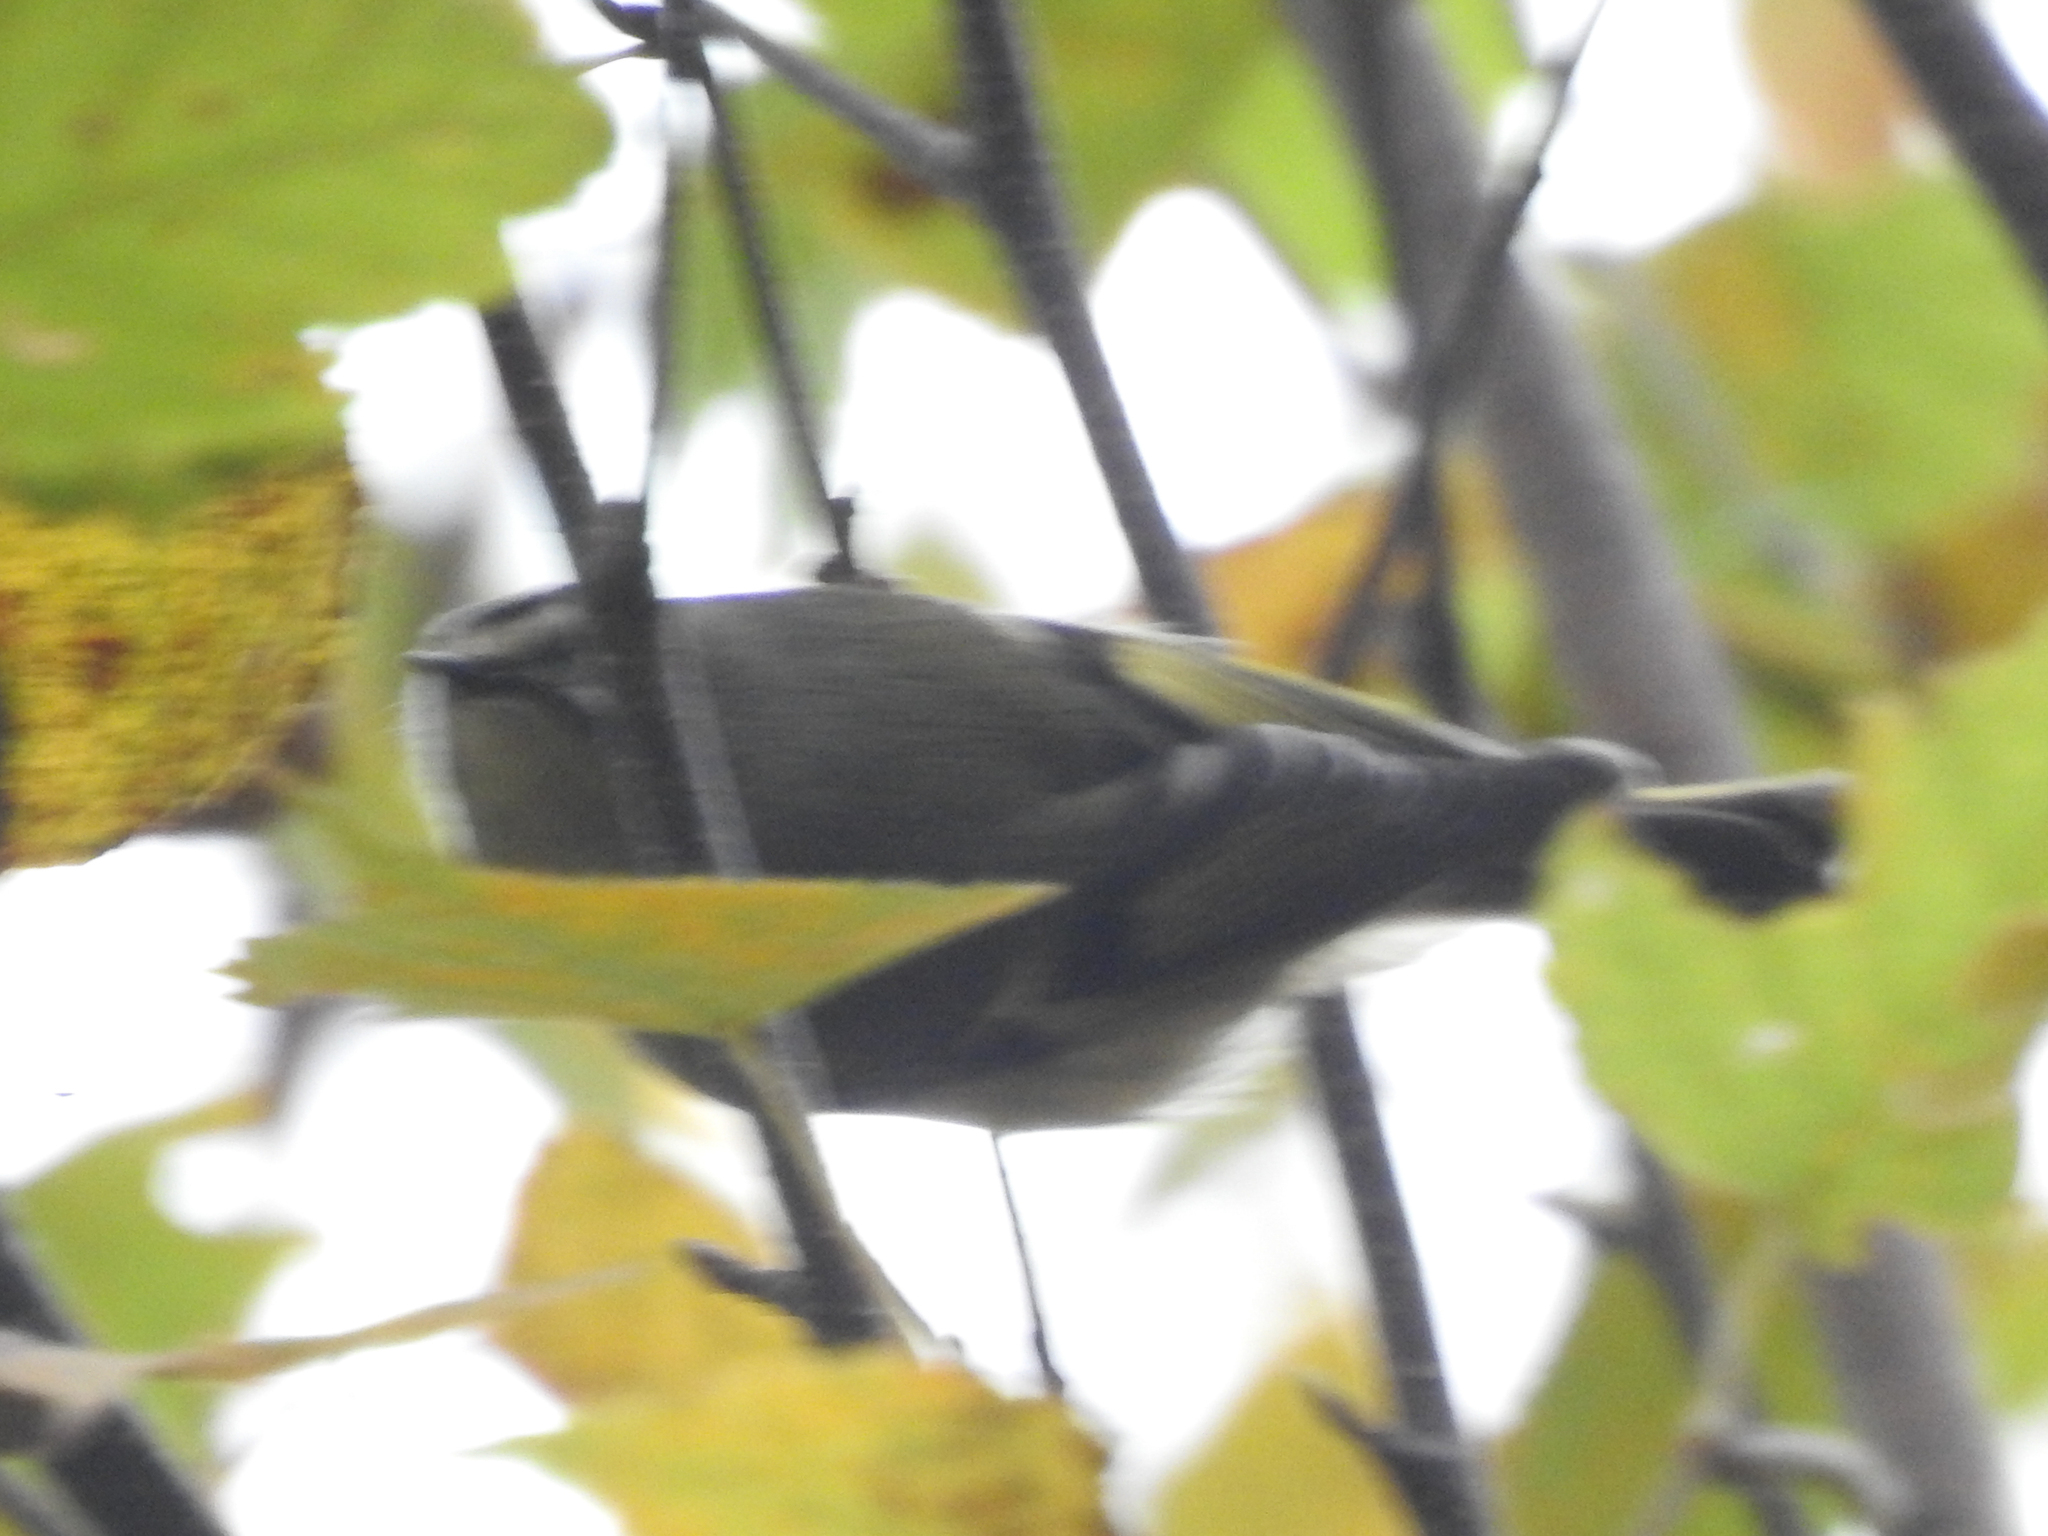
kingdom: Animalia
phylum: Chordata
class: Aves
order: Passeriformes
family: Regulidae
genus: Regulus
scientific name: Regulus satrapa
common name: Golden-crowned kinglet
